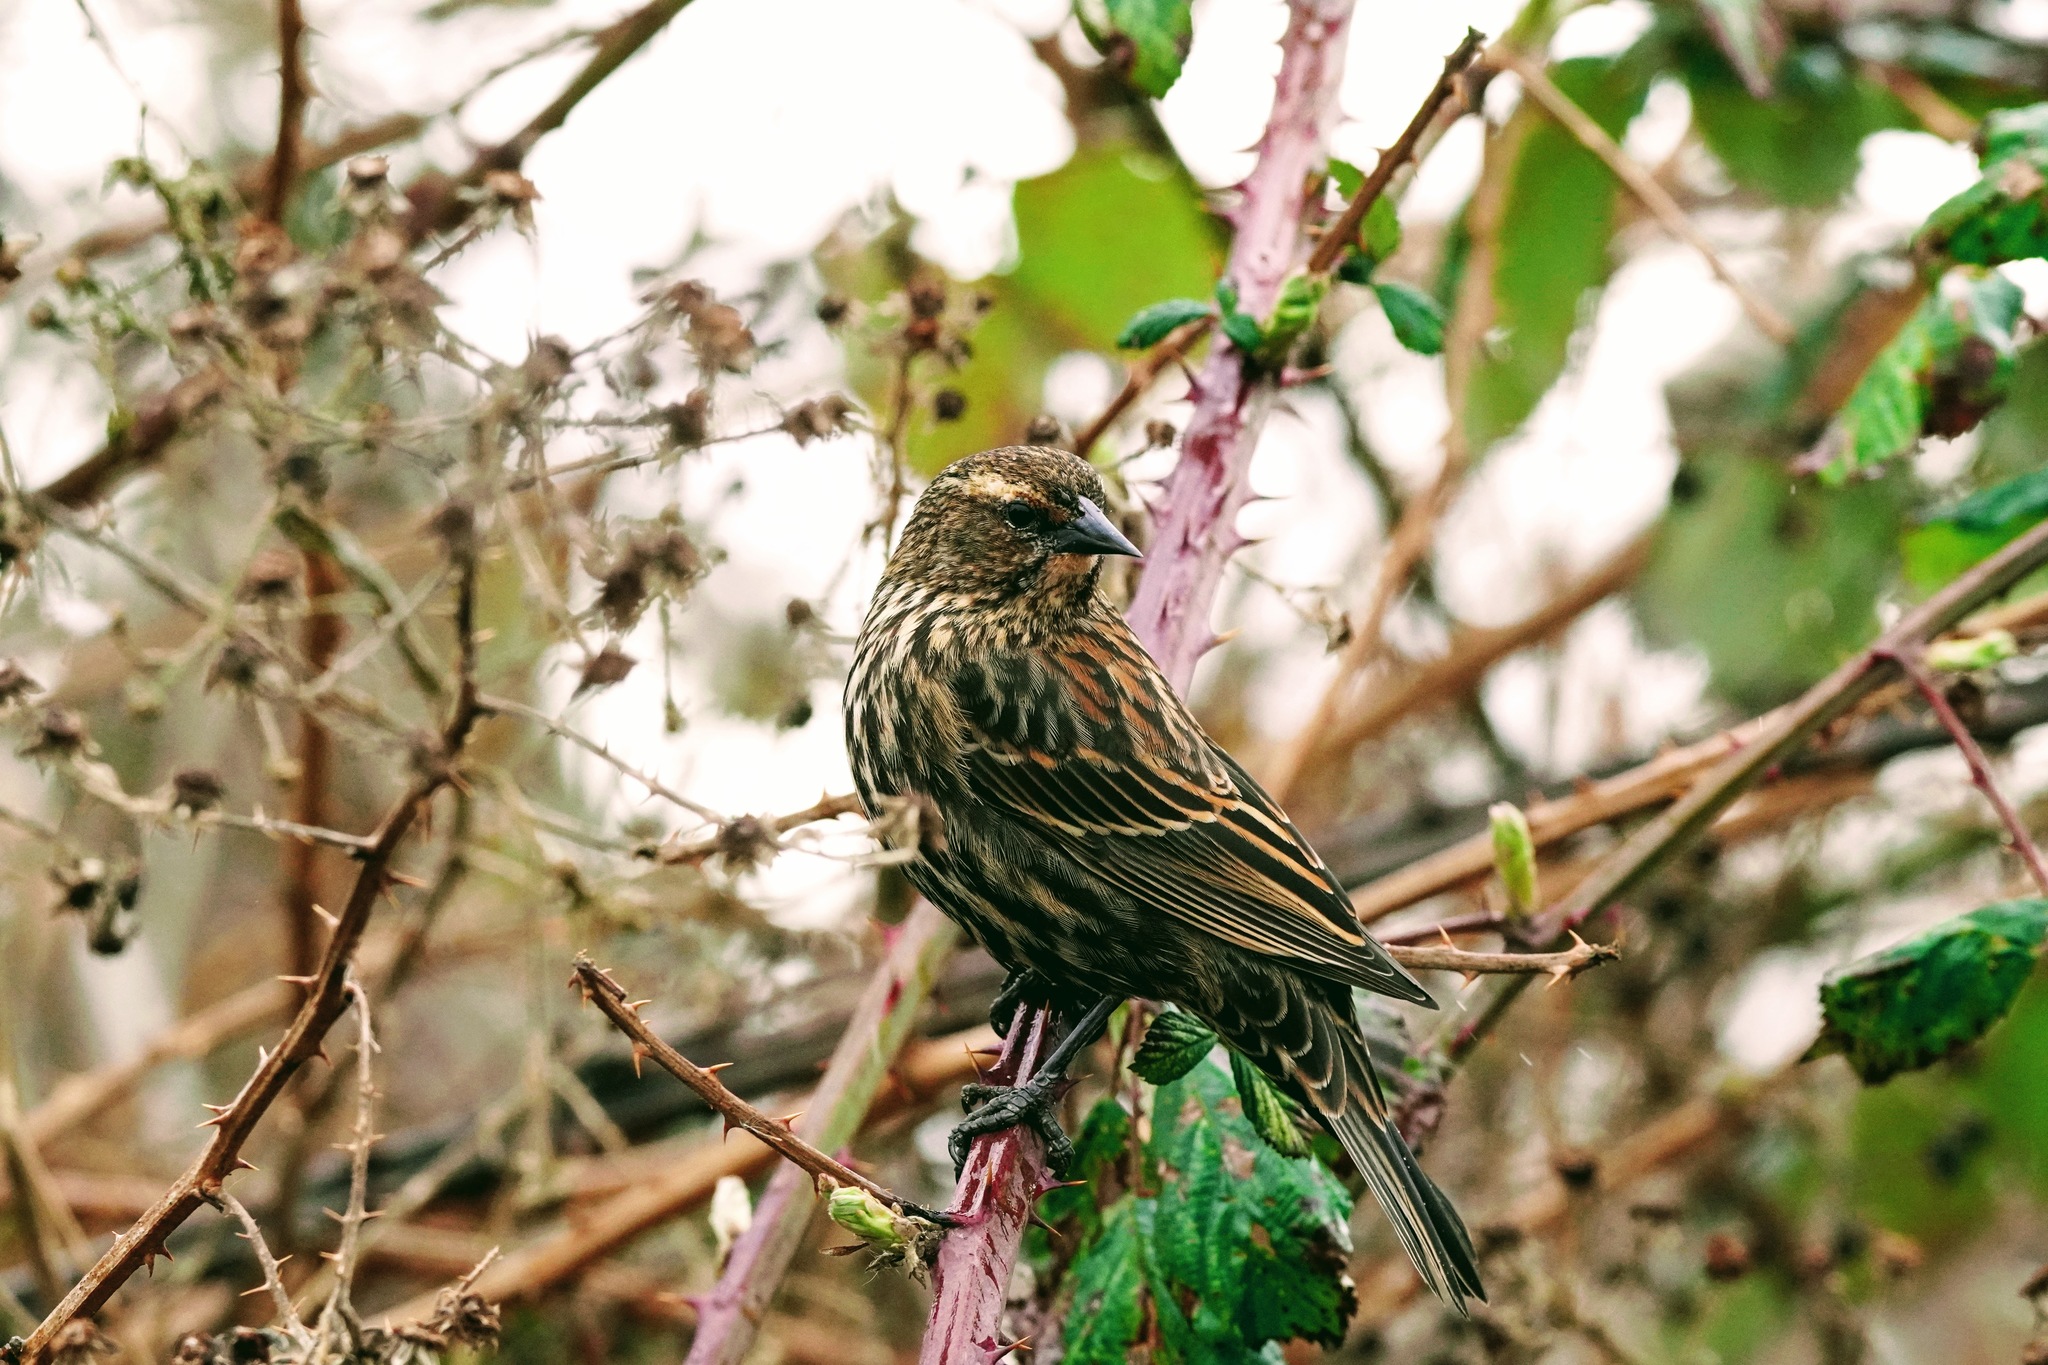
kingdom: Animalia
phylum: Chordata
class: Aves
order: Passeriformes
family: Icteridae
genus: Agelaius
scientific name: Agelaius phoeniceus
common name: Red-winged blackbird
